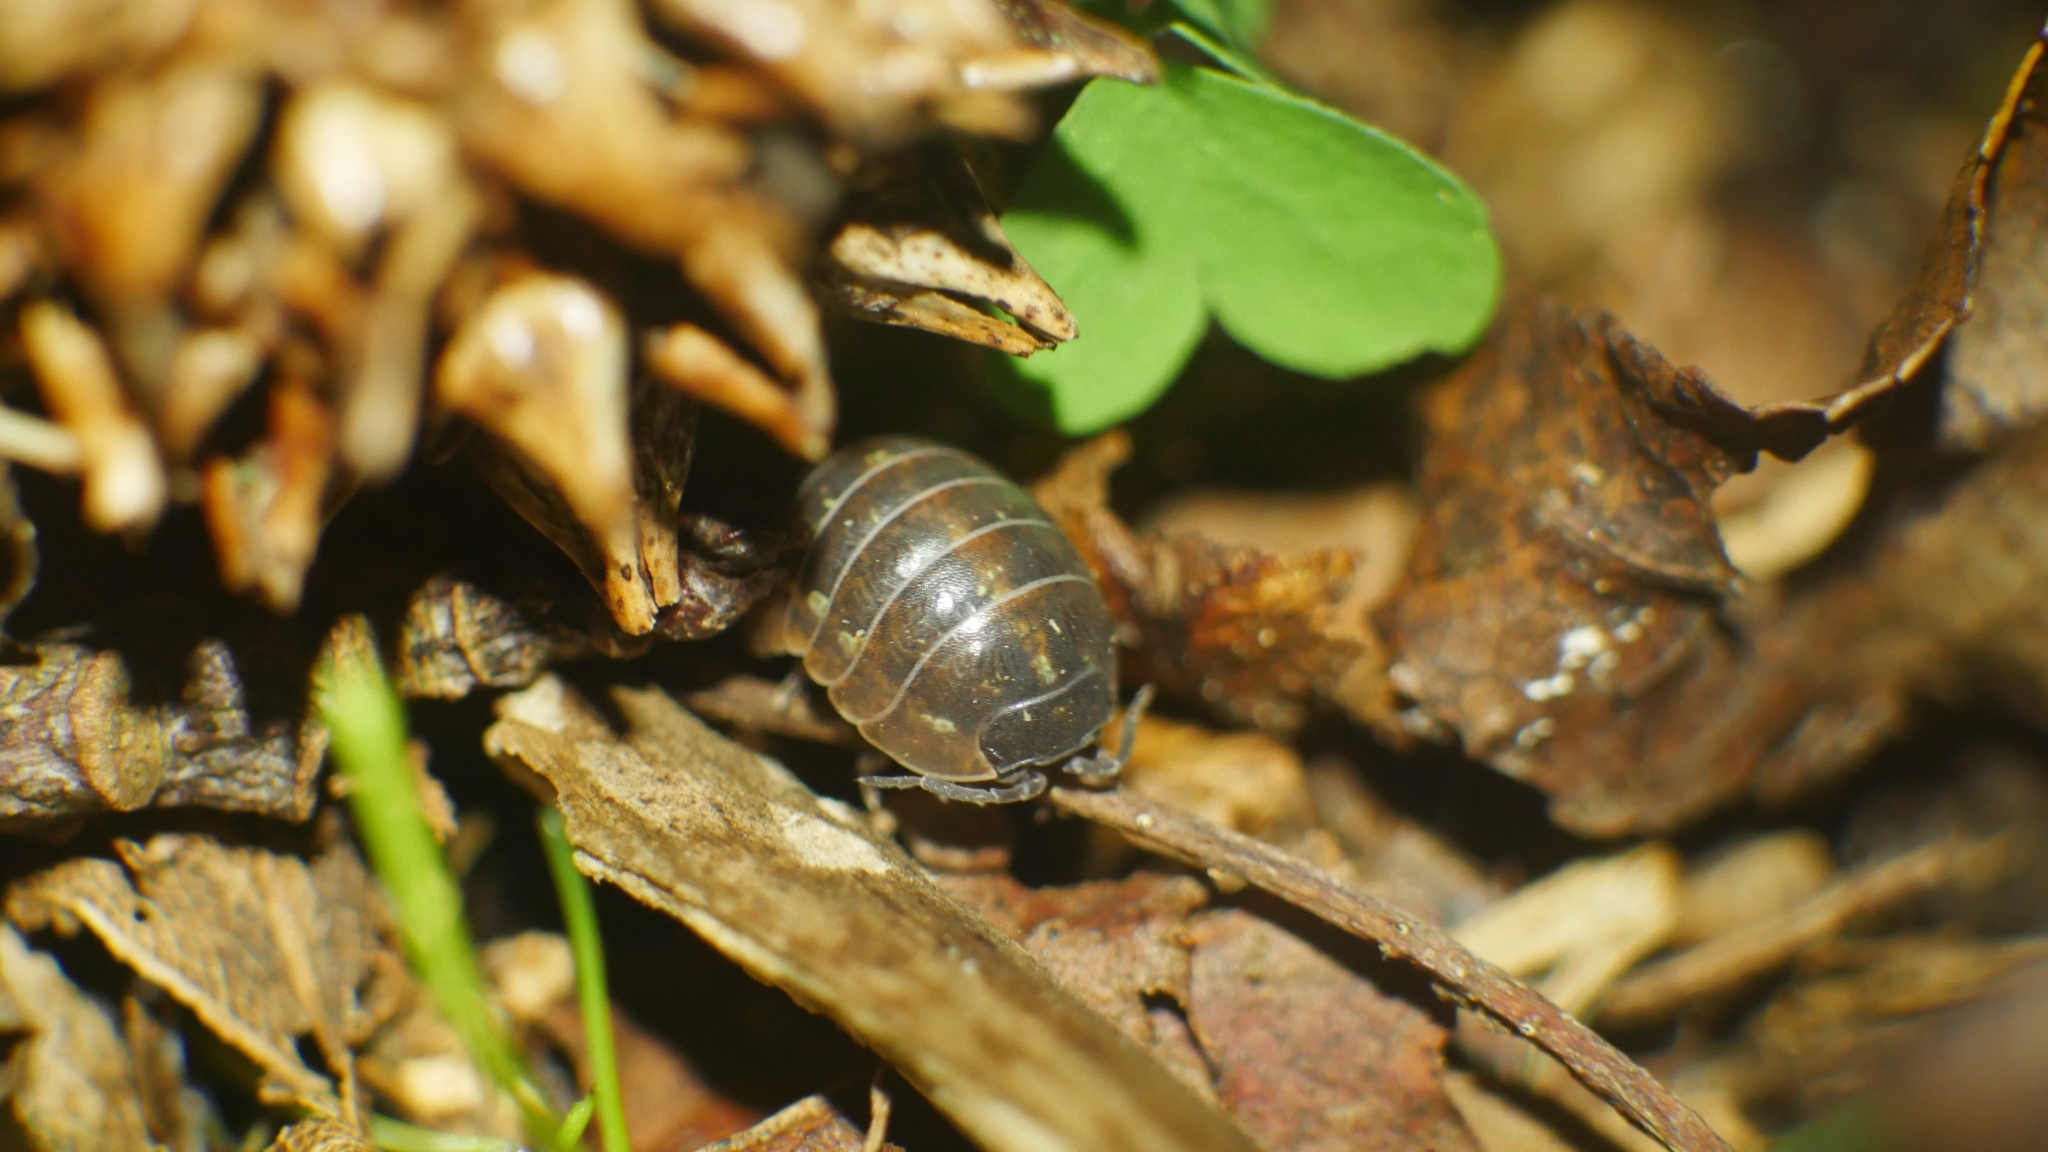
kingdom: Animalia
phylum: Arthropoda
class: Malacostraca
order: Isopoda
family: Armadillidiidae
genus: Armadillidium
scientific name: Armadillidium vulgare
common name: Common pill woodlouse
